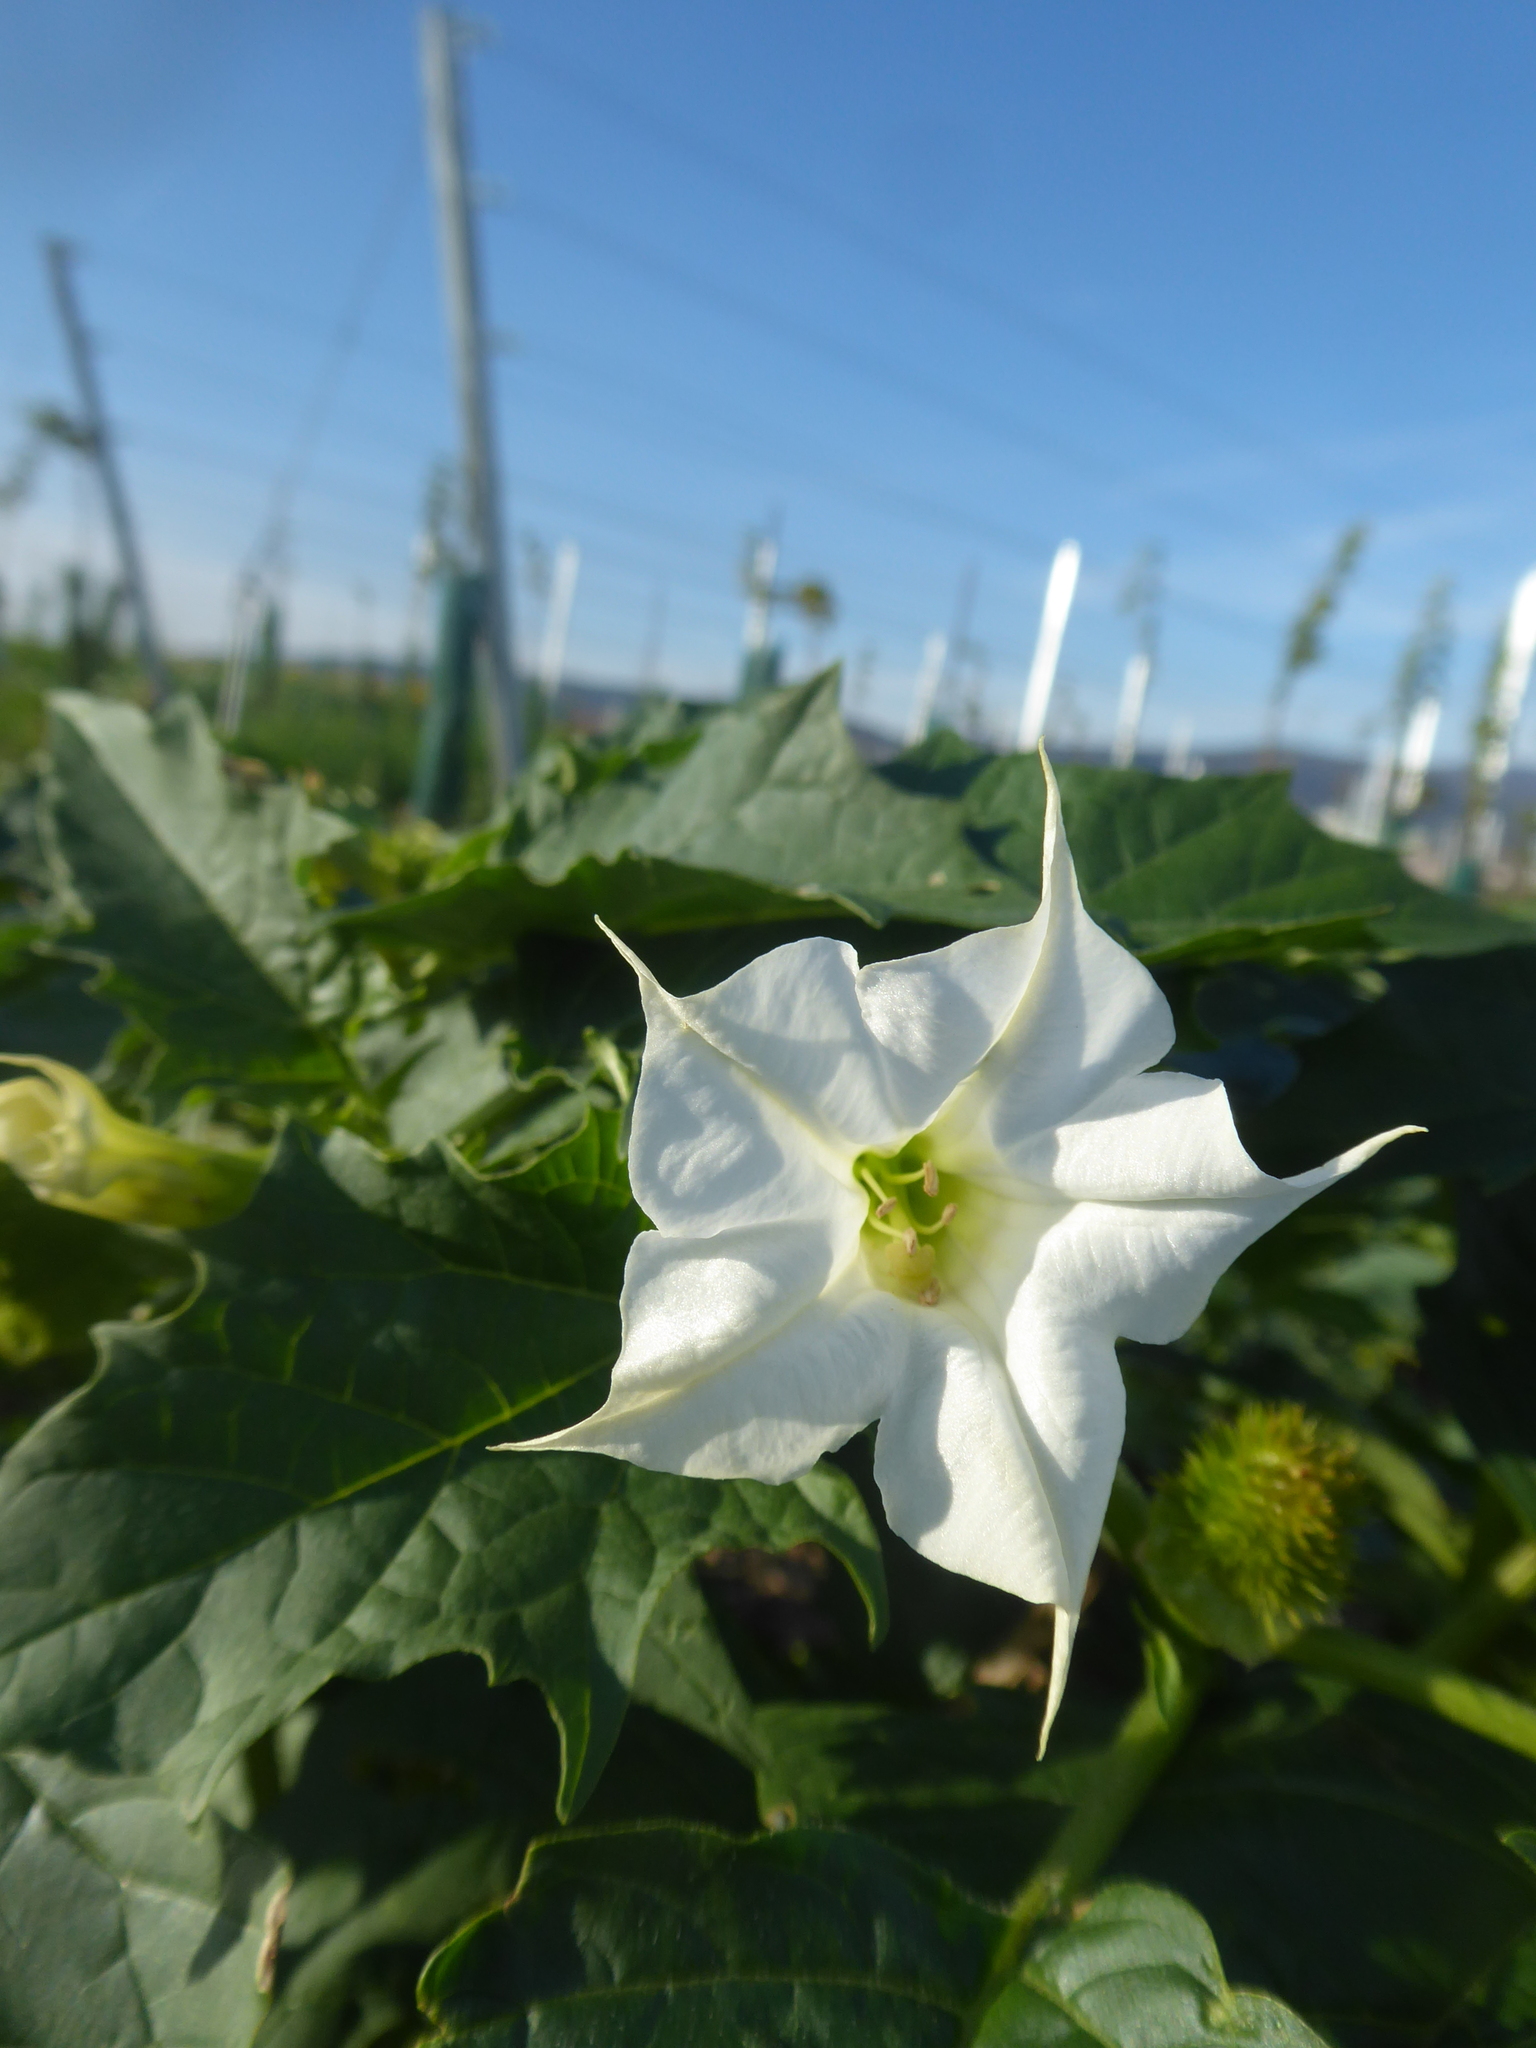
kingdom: Plantae
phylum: Tracheophyta
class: Magnoliopsida
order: Solanales
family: Solanaceae
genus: Datura
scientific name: Datura stramonium
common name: Thorn-apple
